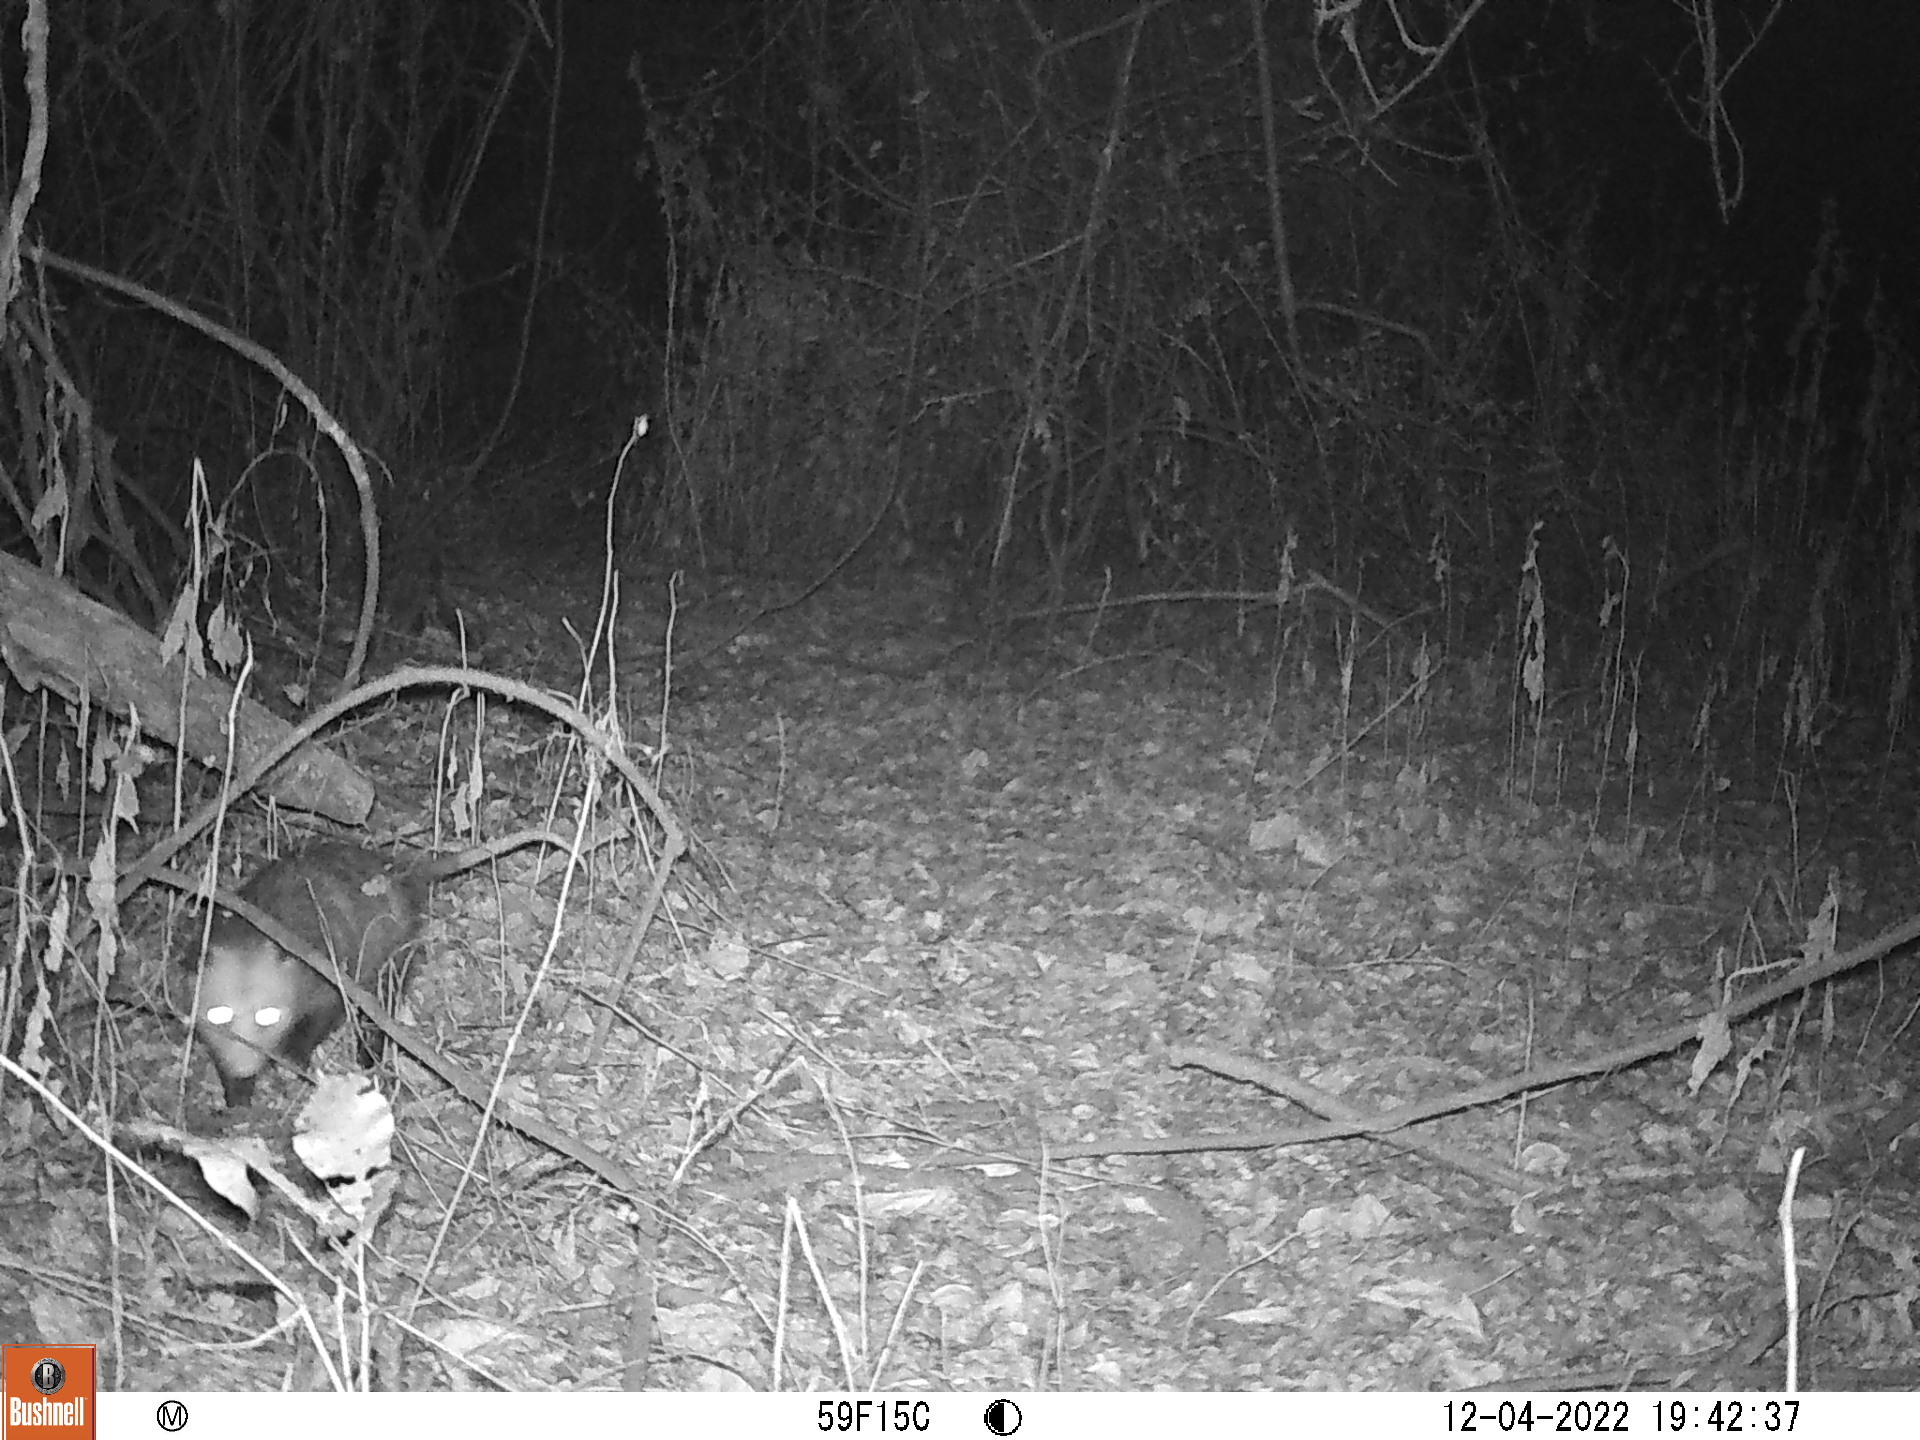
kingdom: Animalia
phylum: Chordata
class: Mammalia
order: Didelphimorphia
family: Didelphidae
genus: Didelphis
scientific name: Didelphis virginiana
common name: Virginia opossum
